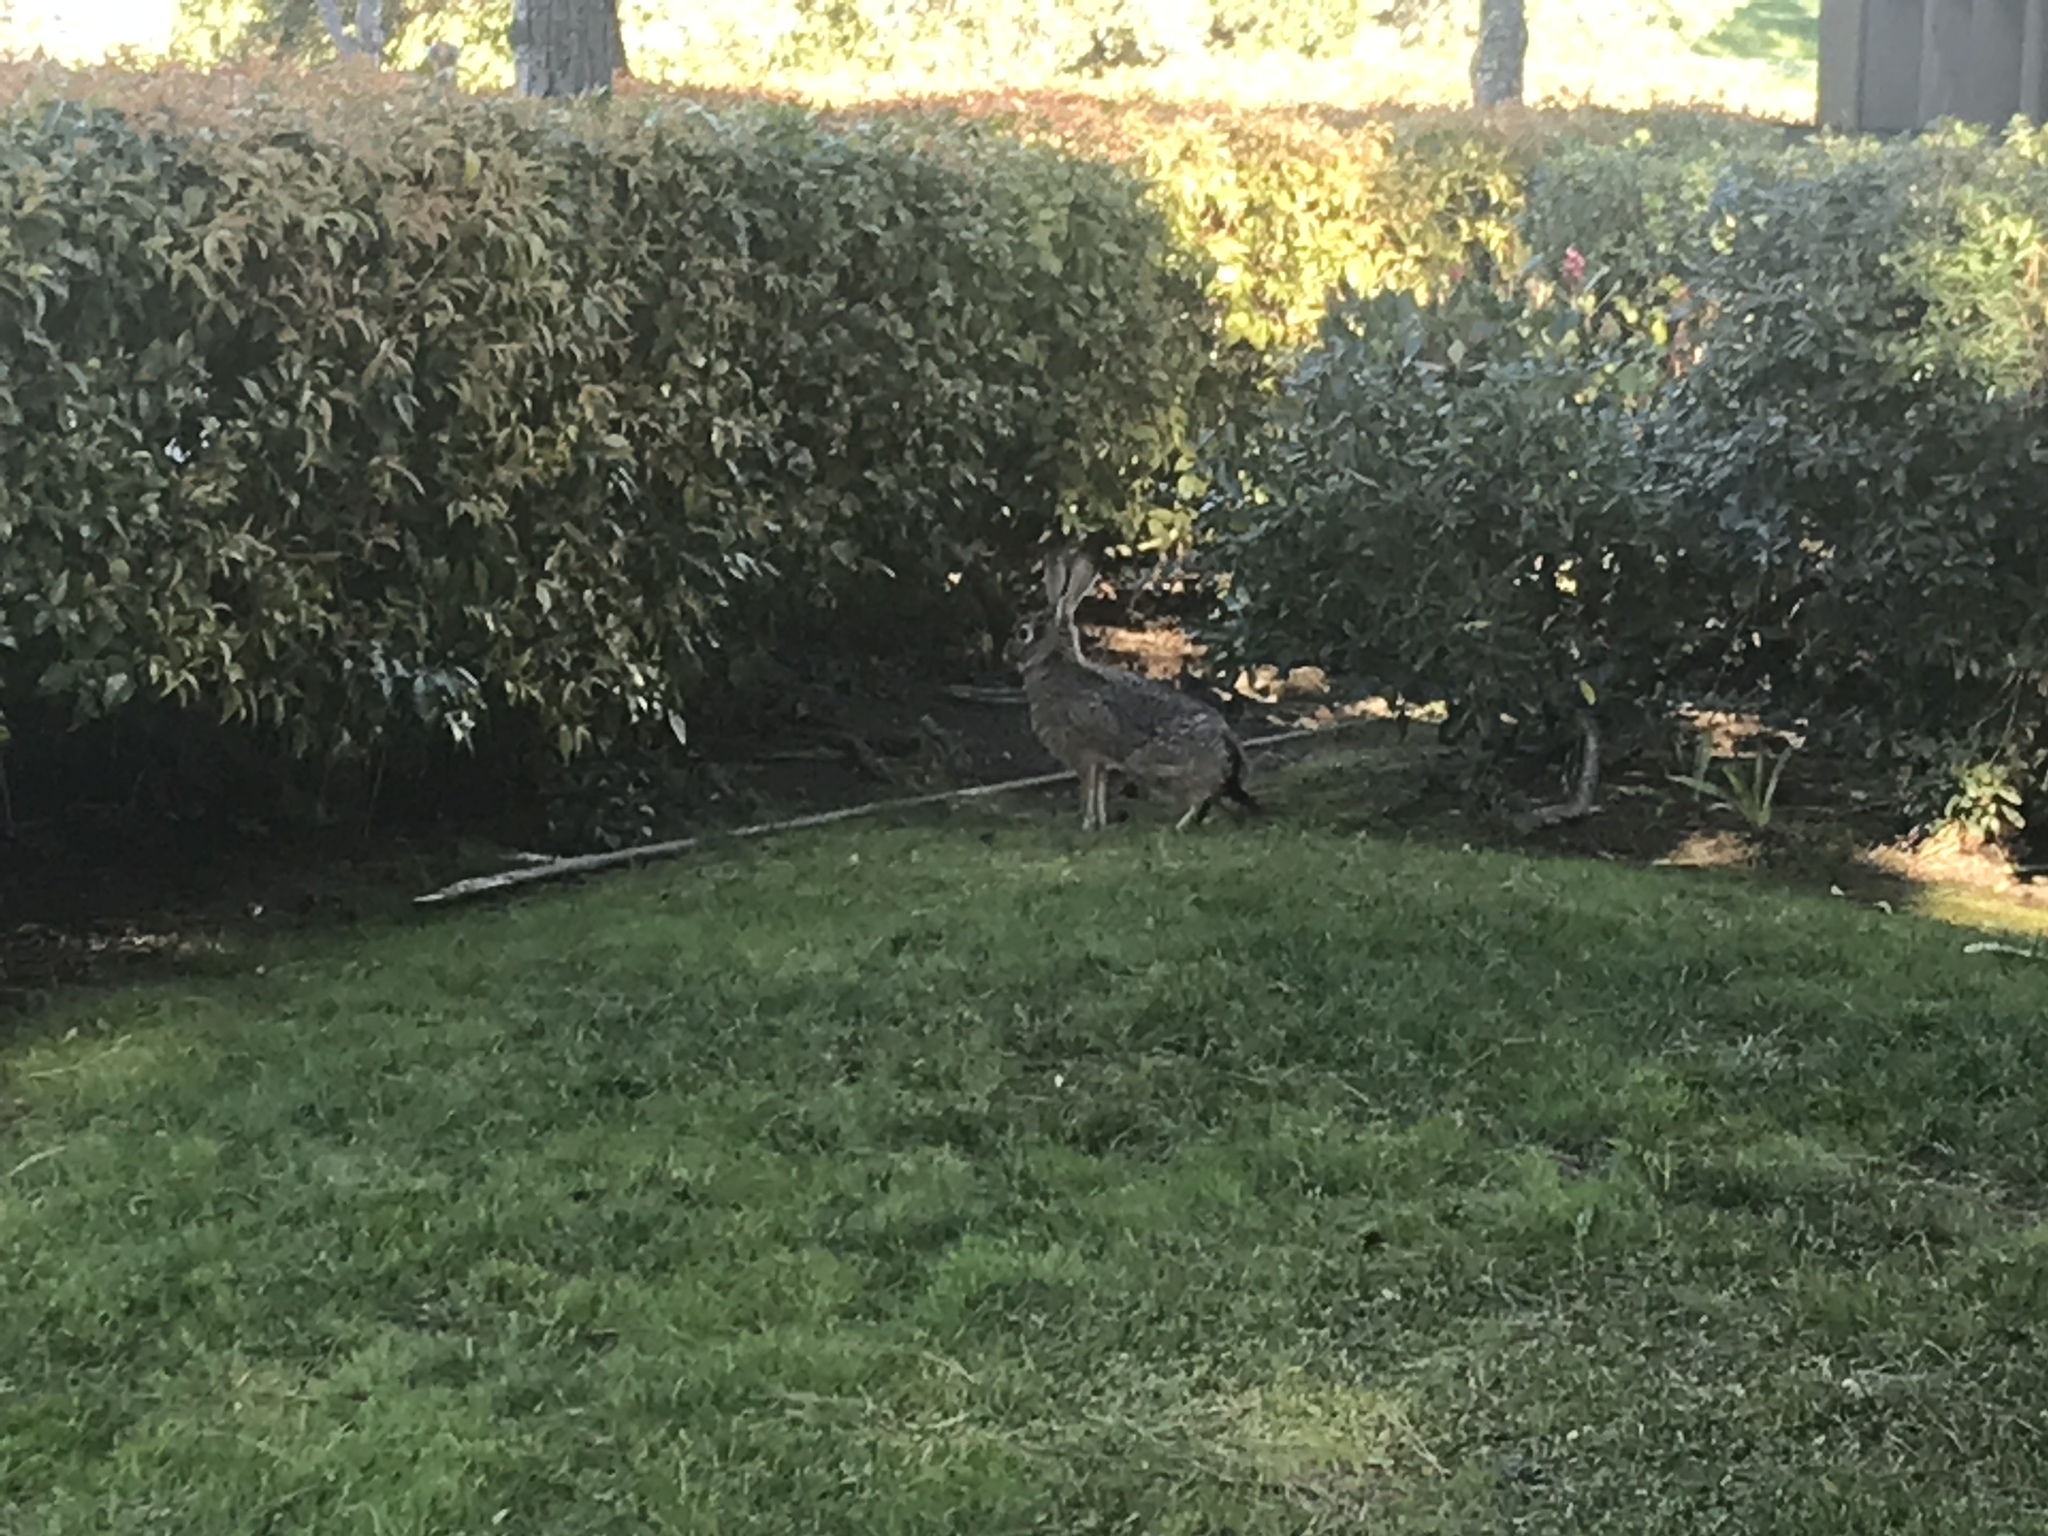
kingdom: Animalia
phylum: Chordata
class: Mammalia
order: Lagomorpha
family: Leporidae
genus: Lepus
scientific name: Lepus californicus
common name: Black-tailed jackrabbit
